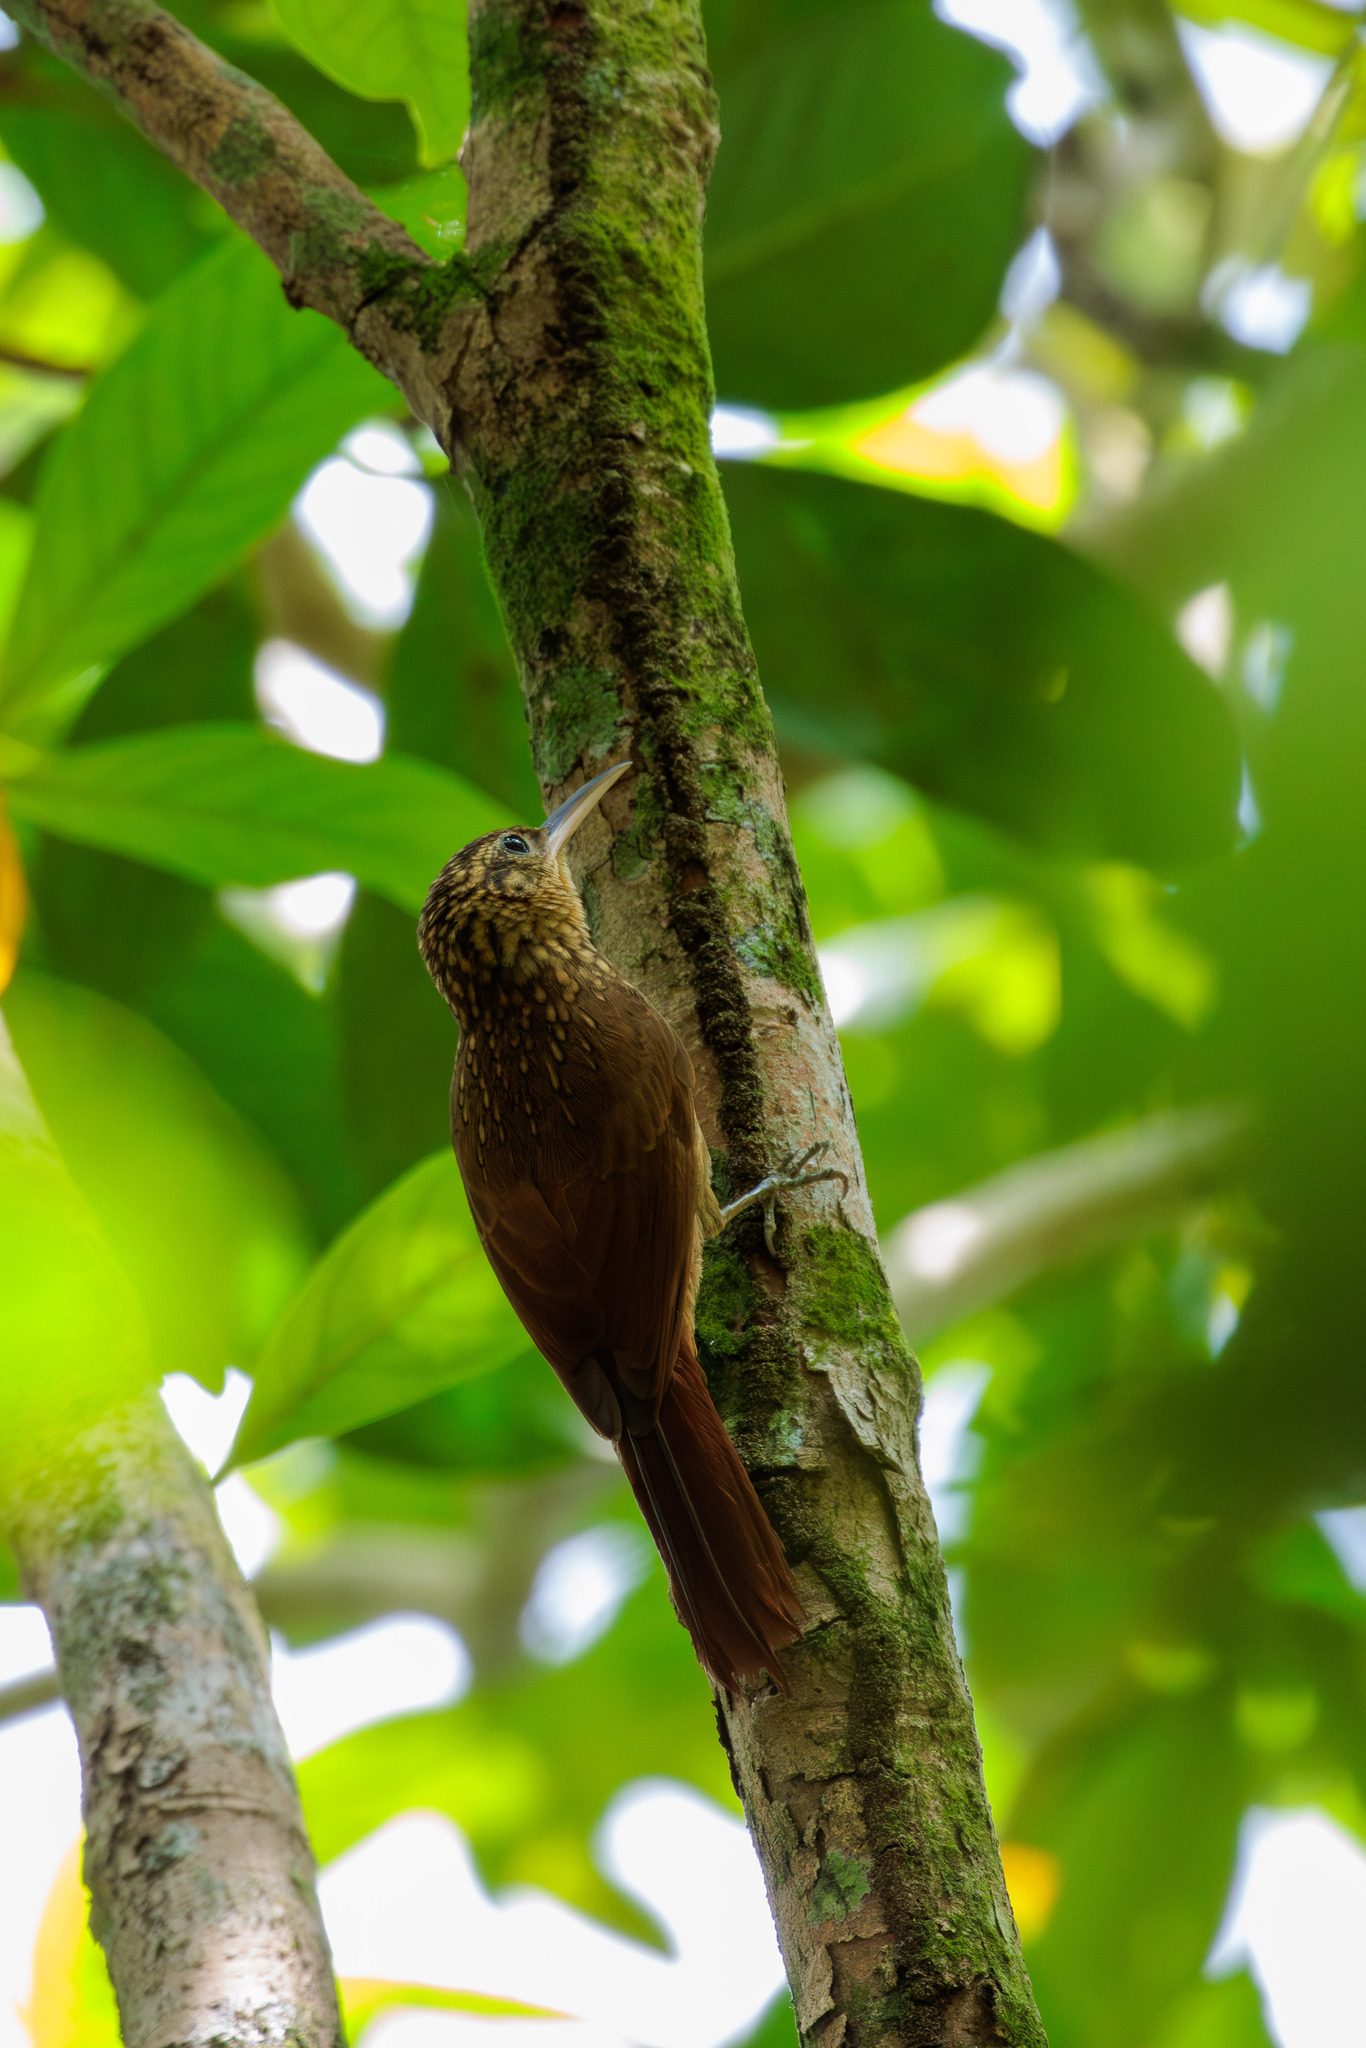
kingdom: Animalia
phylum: Chordata
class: Aves
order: Passeriformes
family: Furnariidae
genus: Xiphorhynchus
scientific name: Xiphorhynchus fuscus
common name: Lesser woodcreeper
